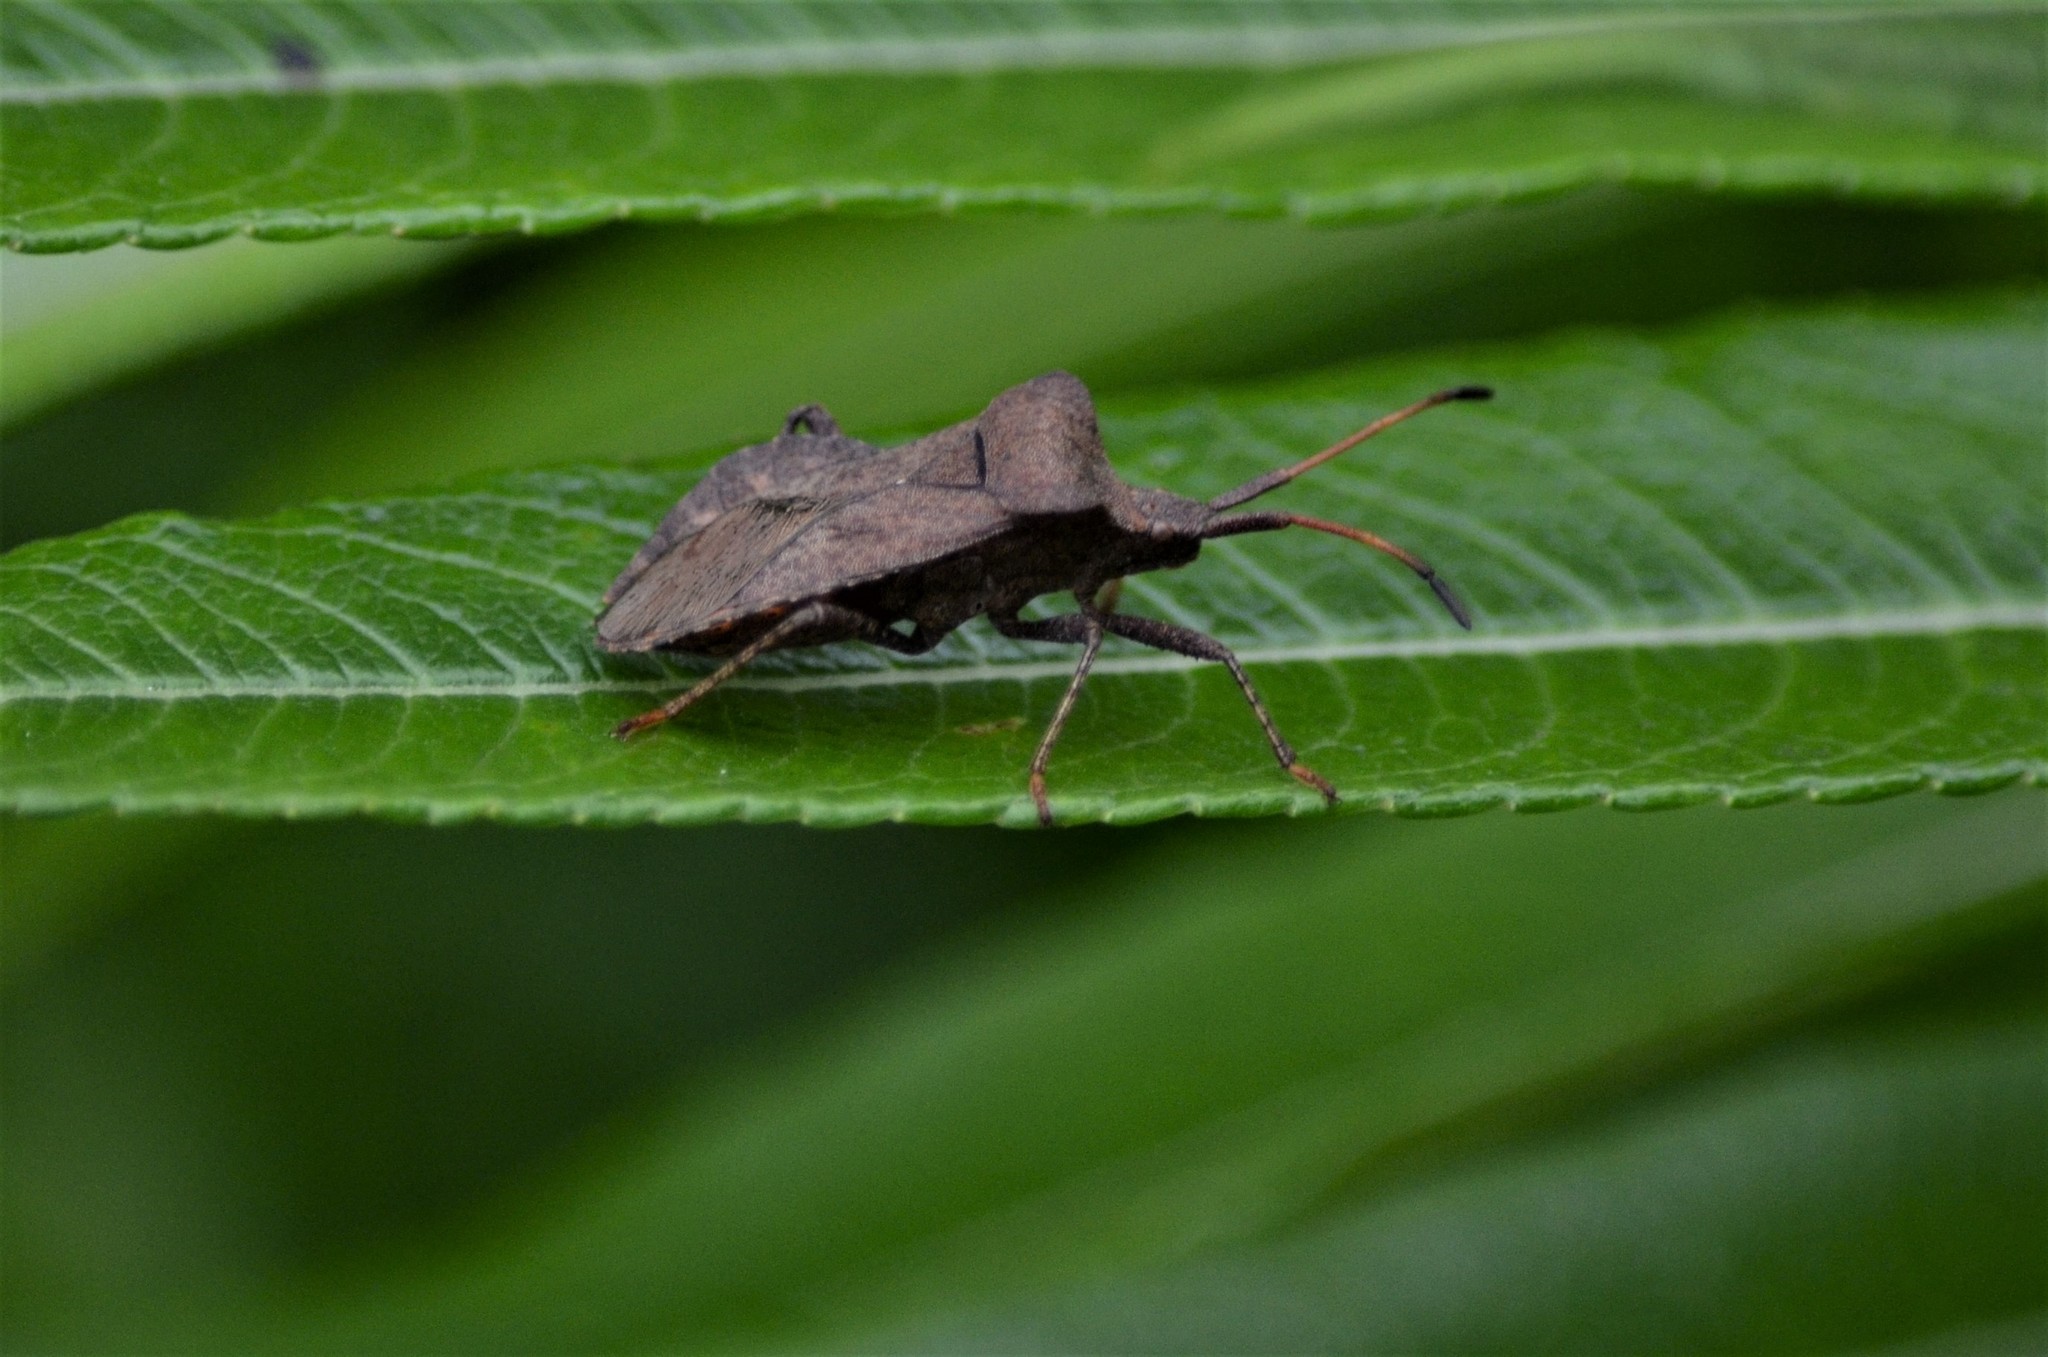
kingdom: Animalia
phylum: Arthropoda
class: Insecta
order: Hemiptera
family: Coreidae
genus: Coreus
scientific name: Coreus marginatus
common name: Dock bug
